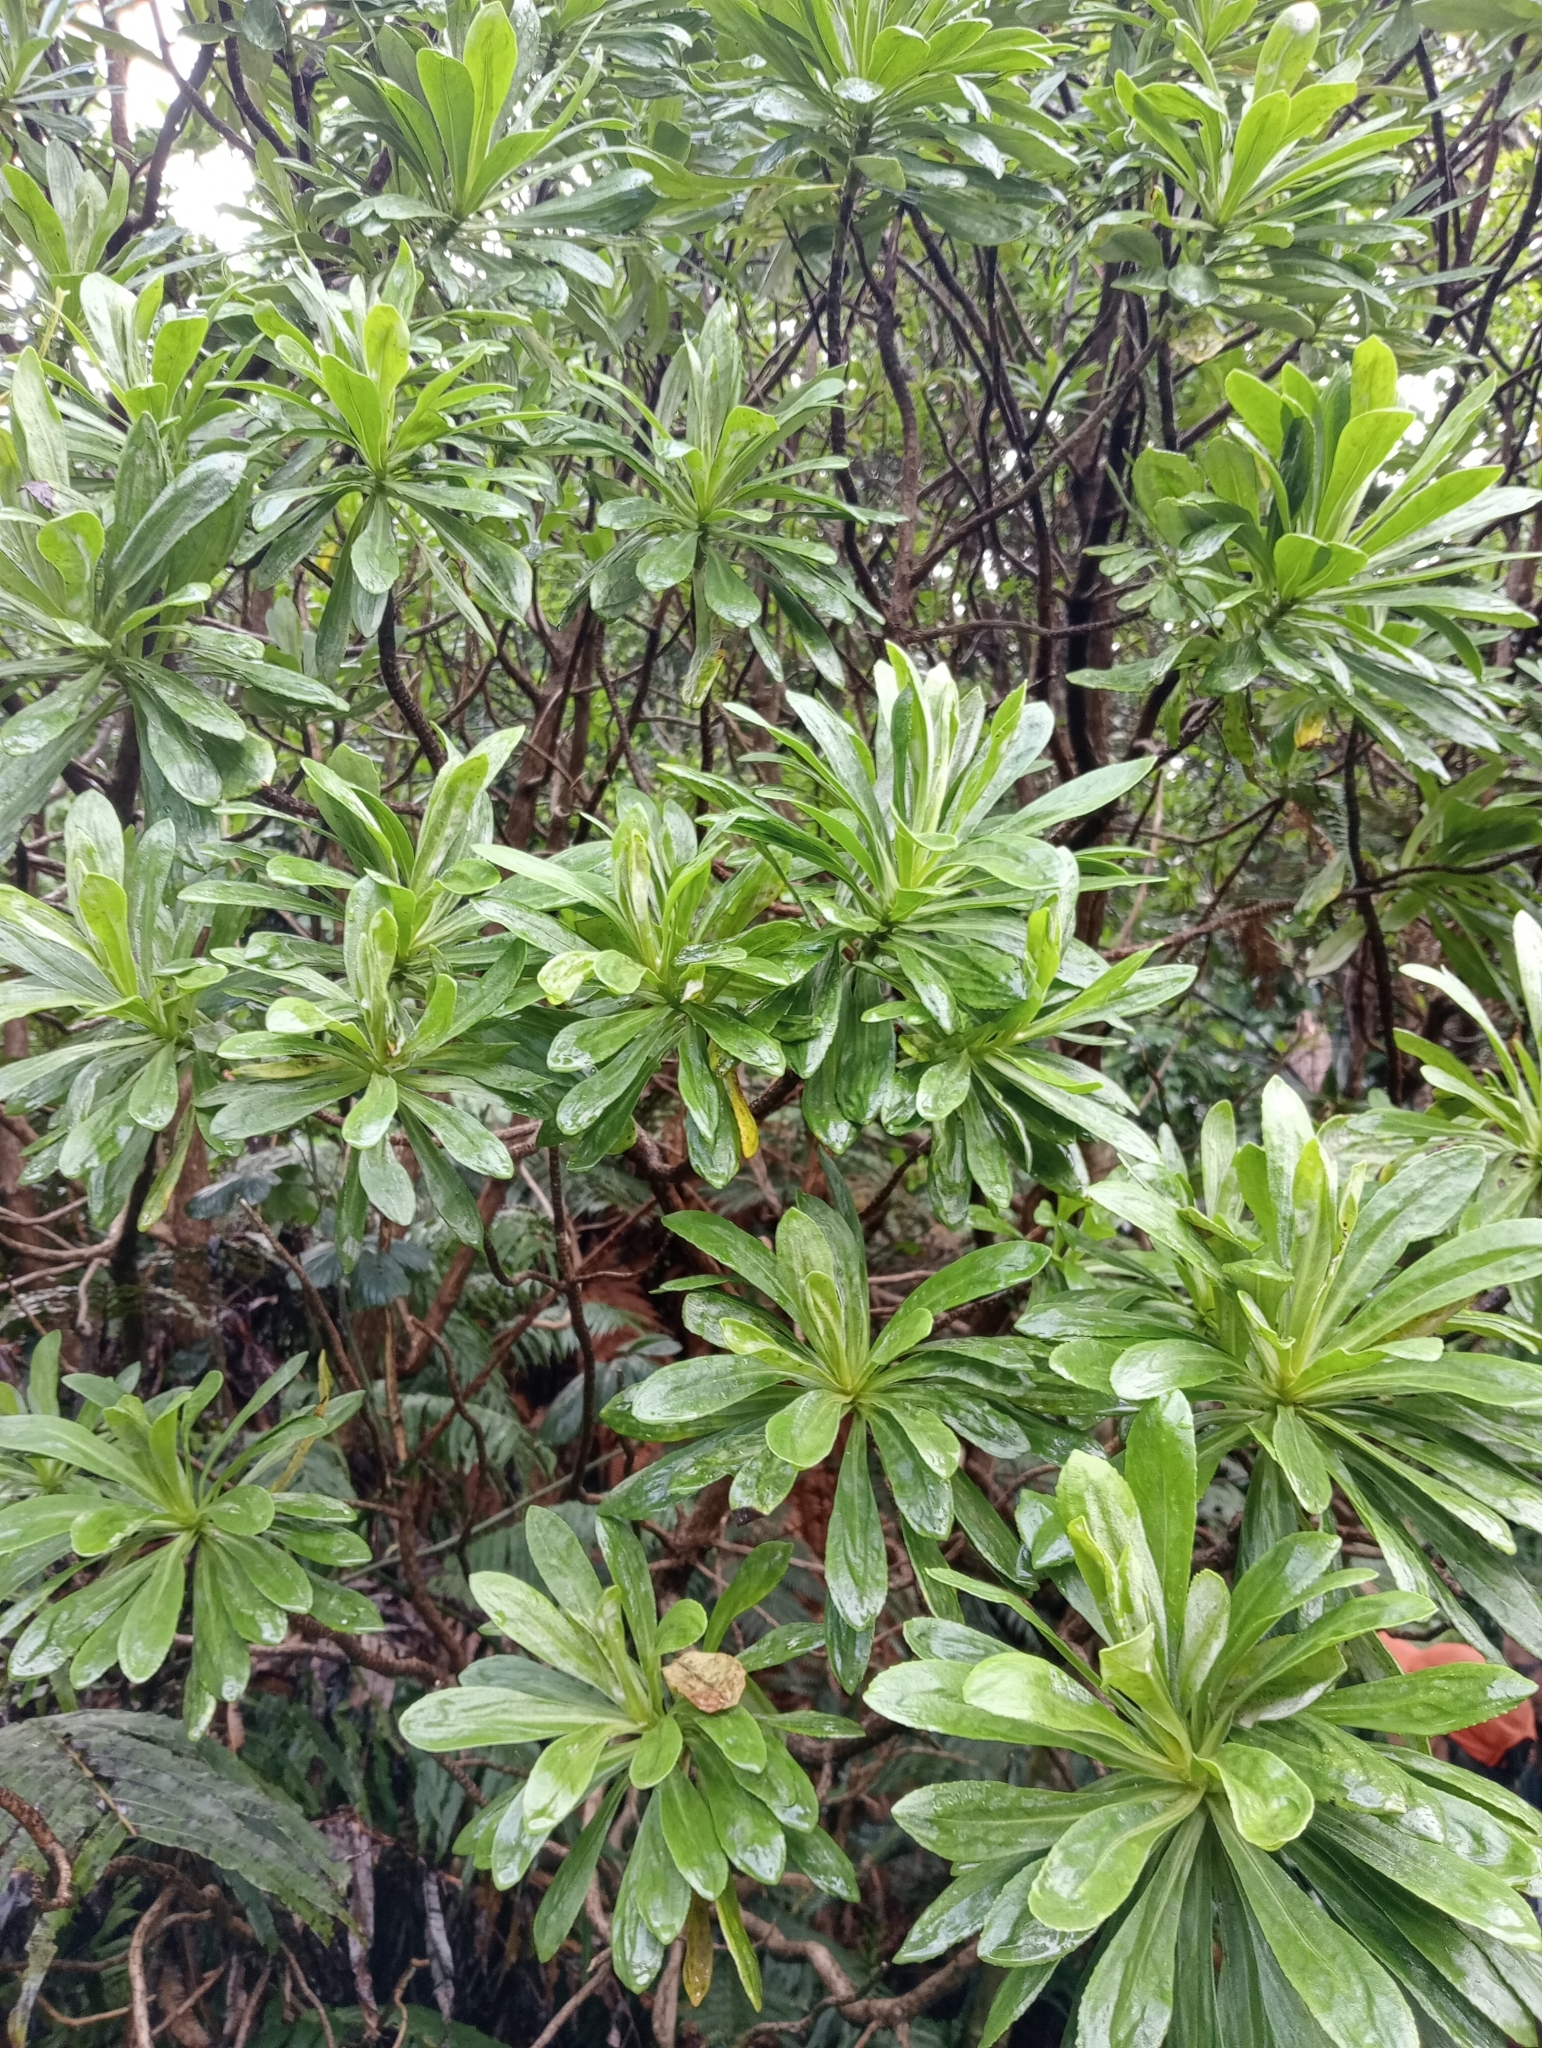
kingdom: Plantae
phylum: Tracheophyta
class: Magnoliopsida
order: Asterales
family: Asteraceae
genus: Brachyglottis
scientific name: Brachyglottis huntii
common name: Chatham island christmas tree
